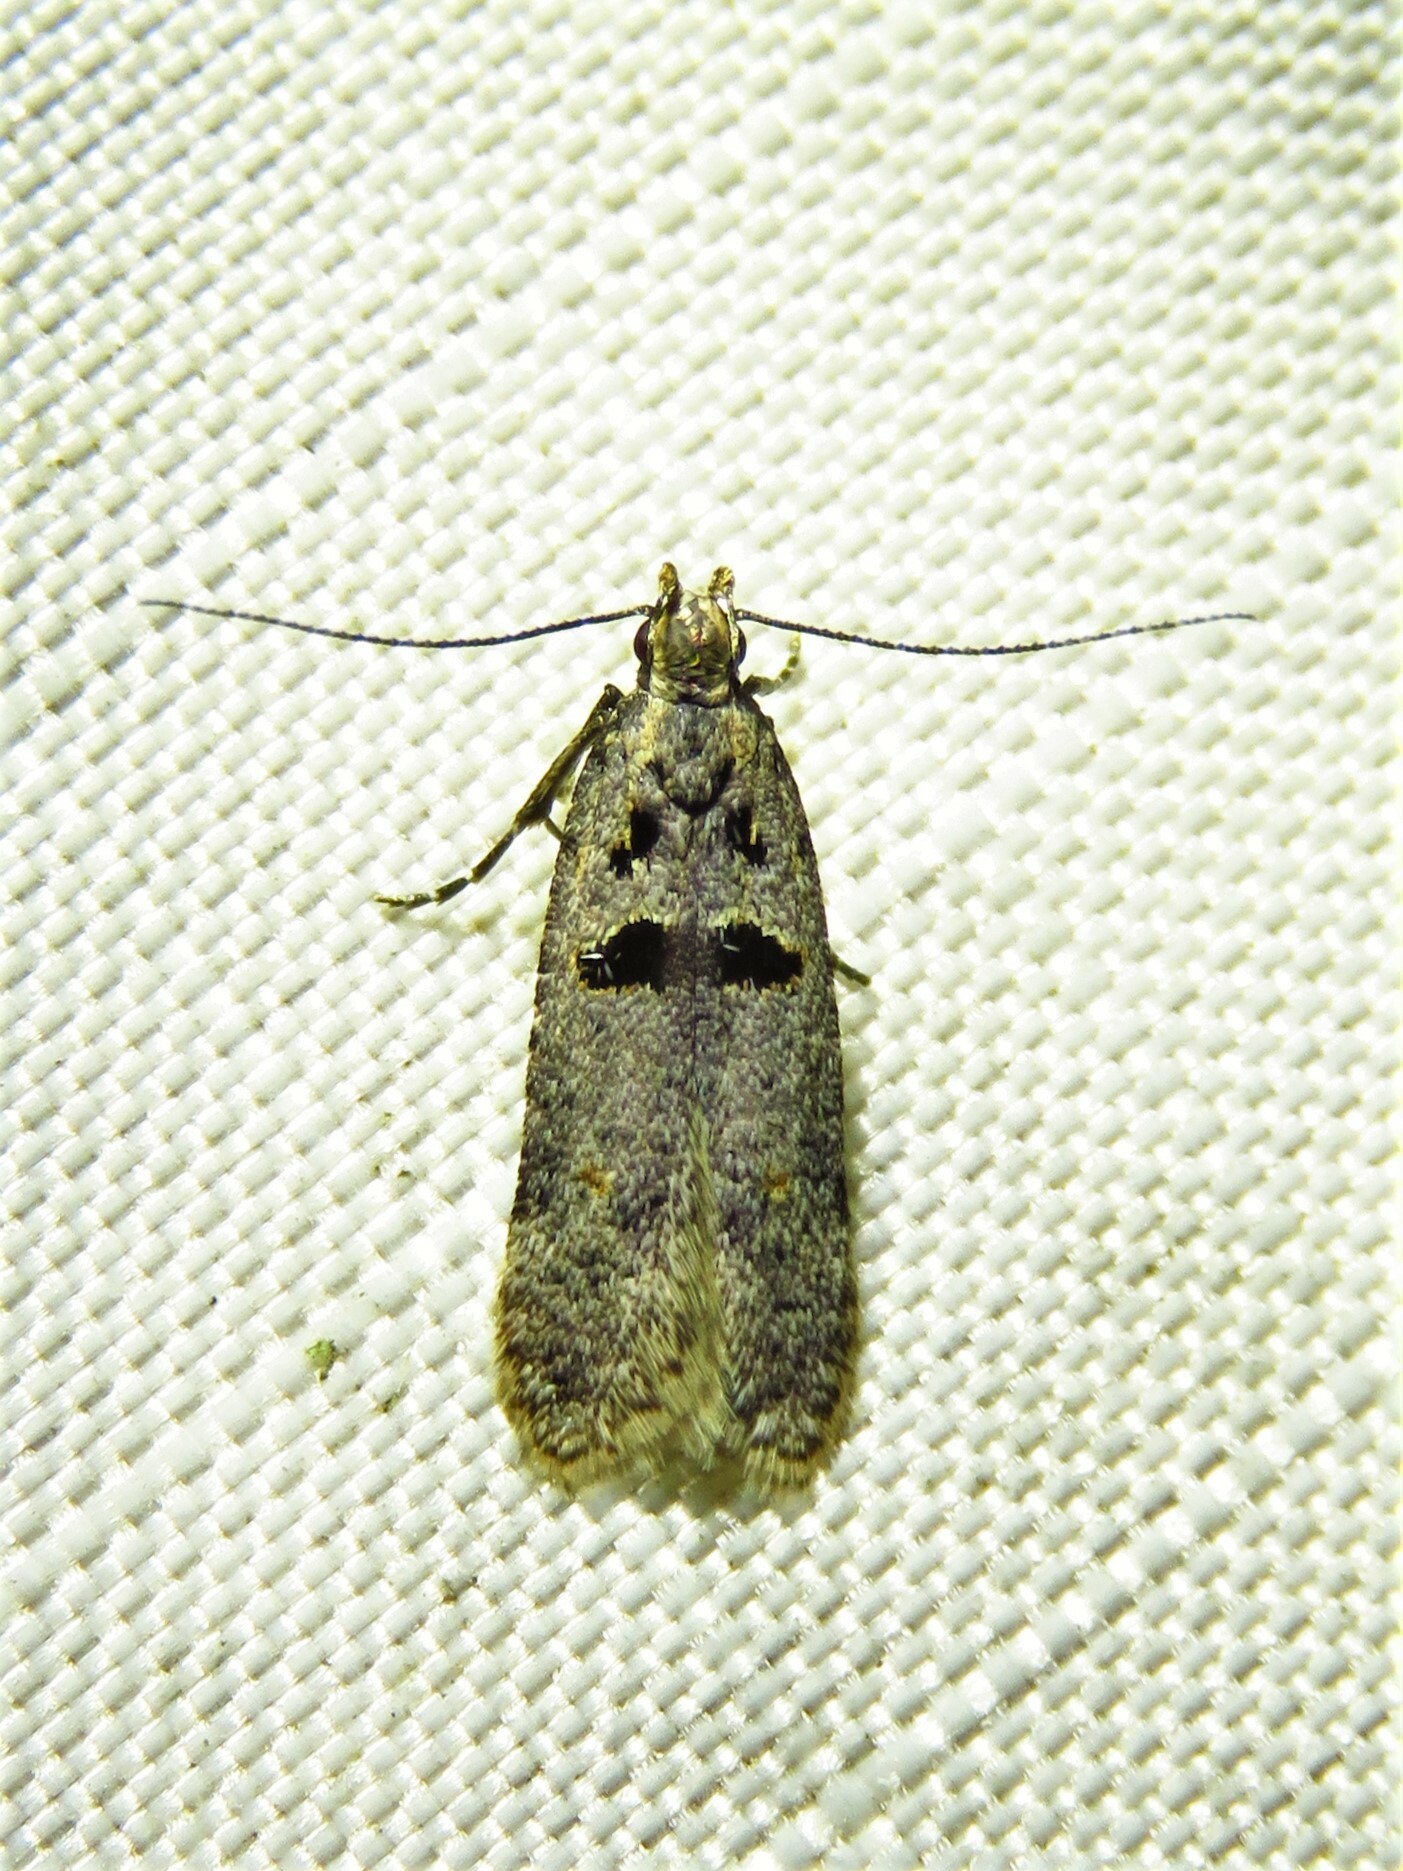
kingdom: Animalia
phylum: Arthropoda
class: Insecta
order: Lepidoptera
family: Gelechiidae
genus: Deltophora
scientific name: Deltophora glandiferella
